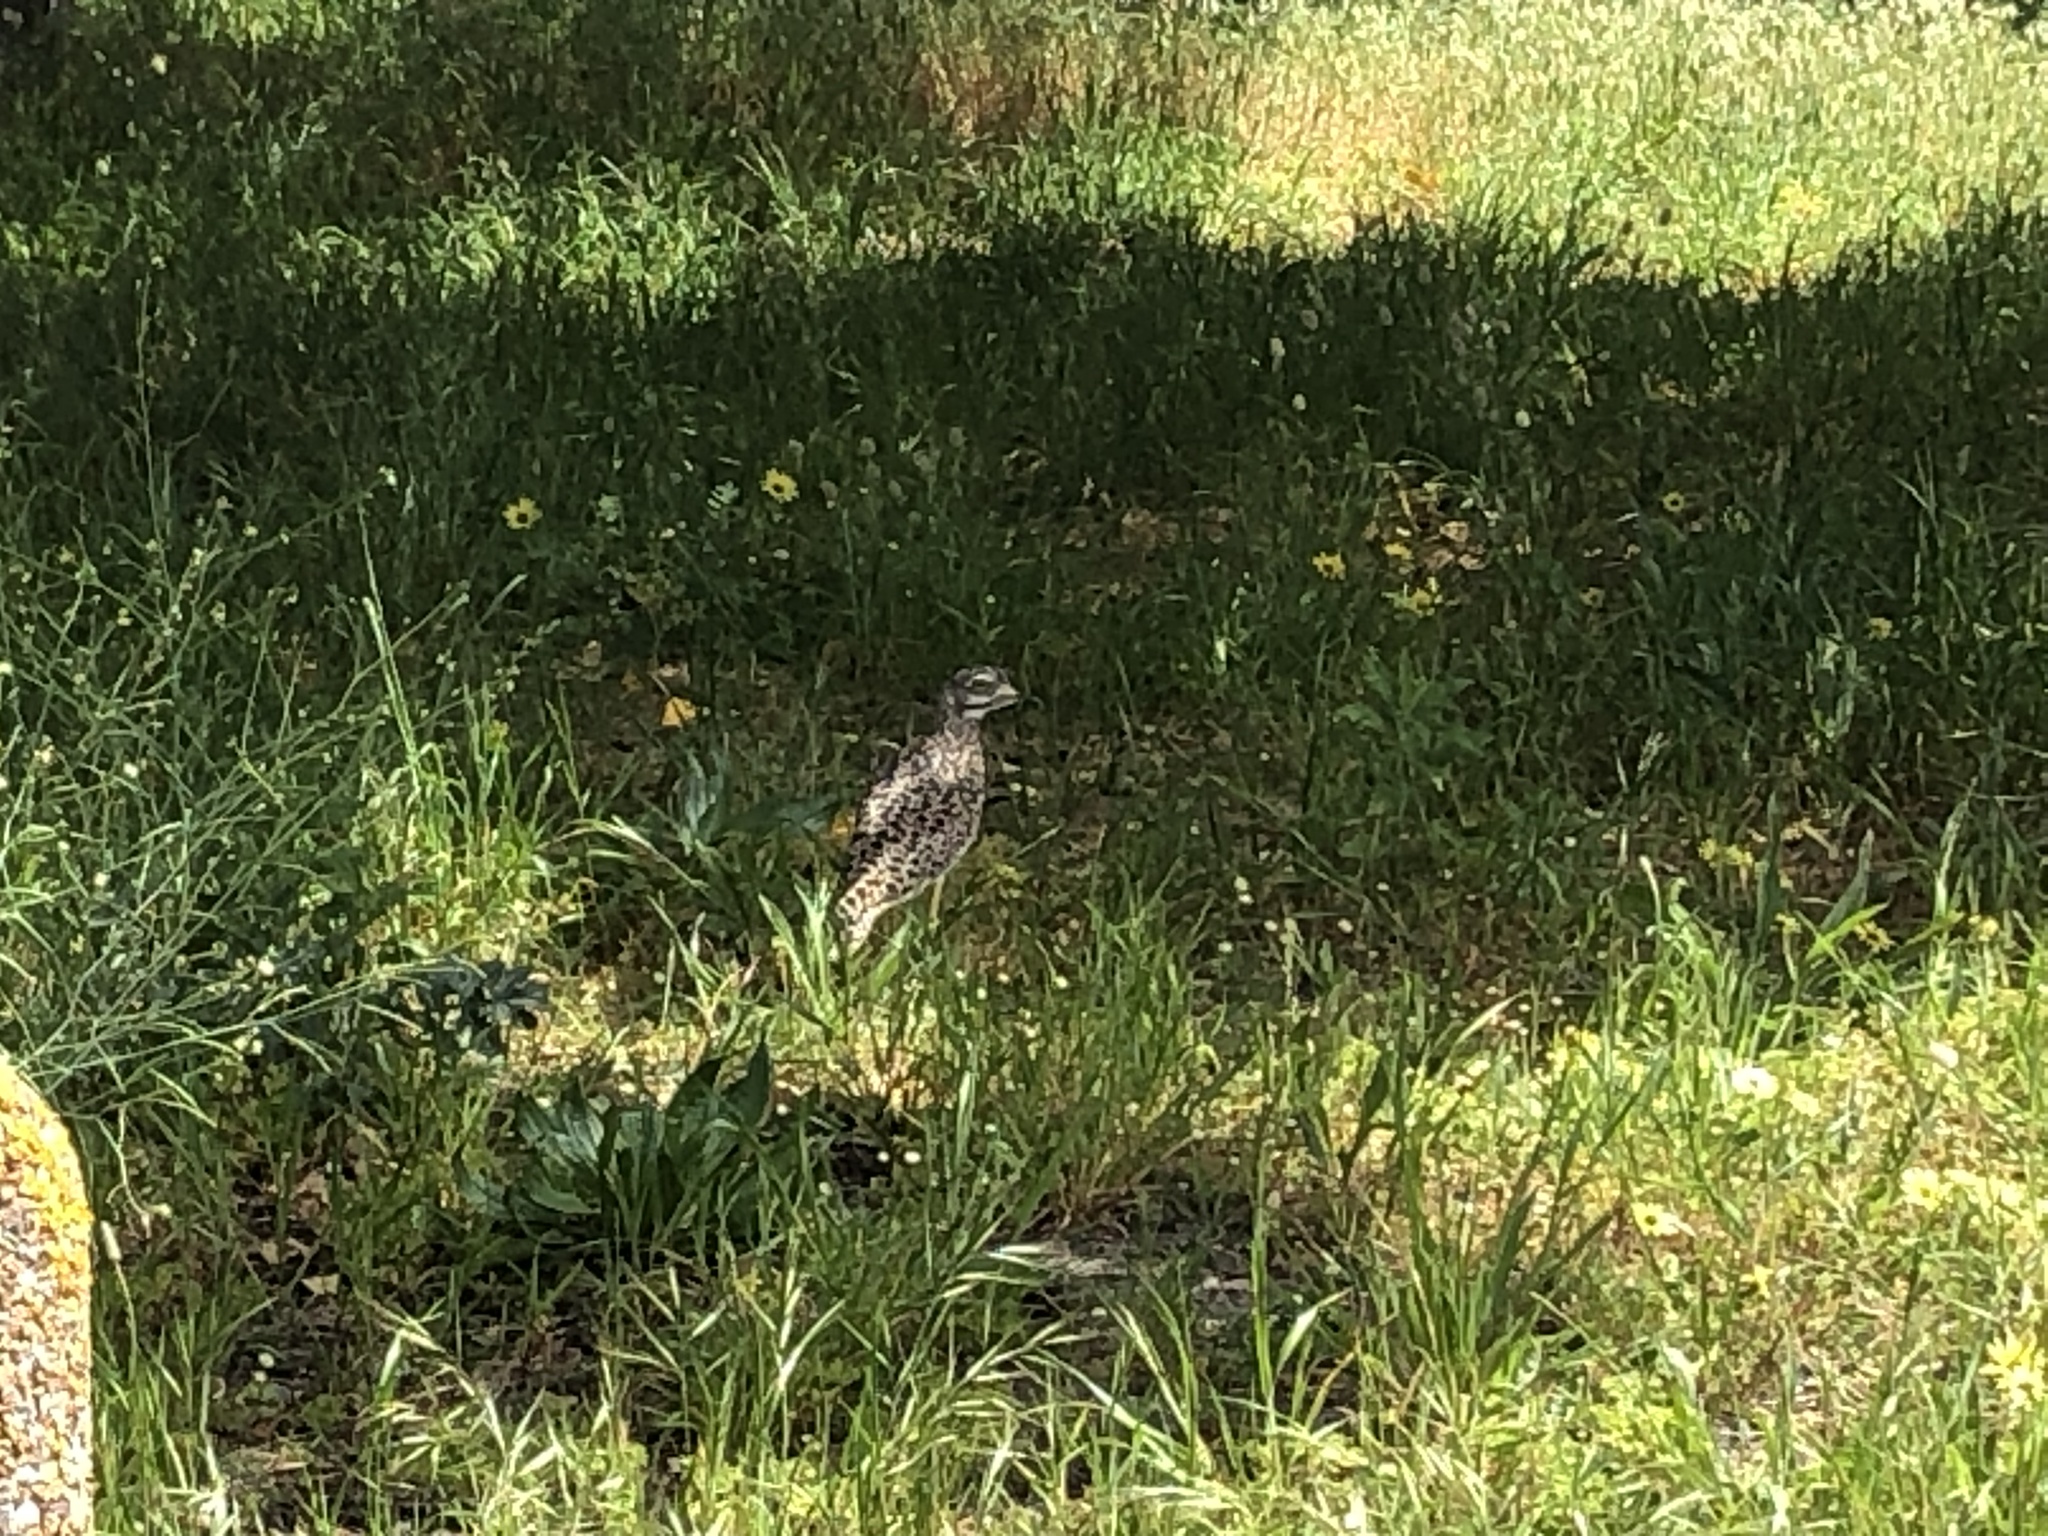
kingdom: Animalia
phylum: Chordata
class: Aves
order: Charadriiformes
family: Burhinidae
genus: Burhinus
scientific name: Burhinus capensis
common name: Spotted thick-knee
